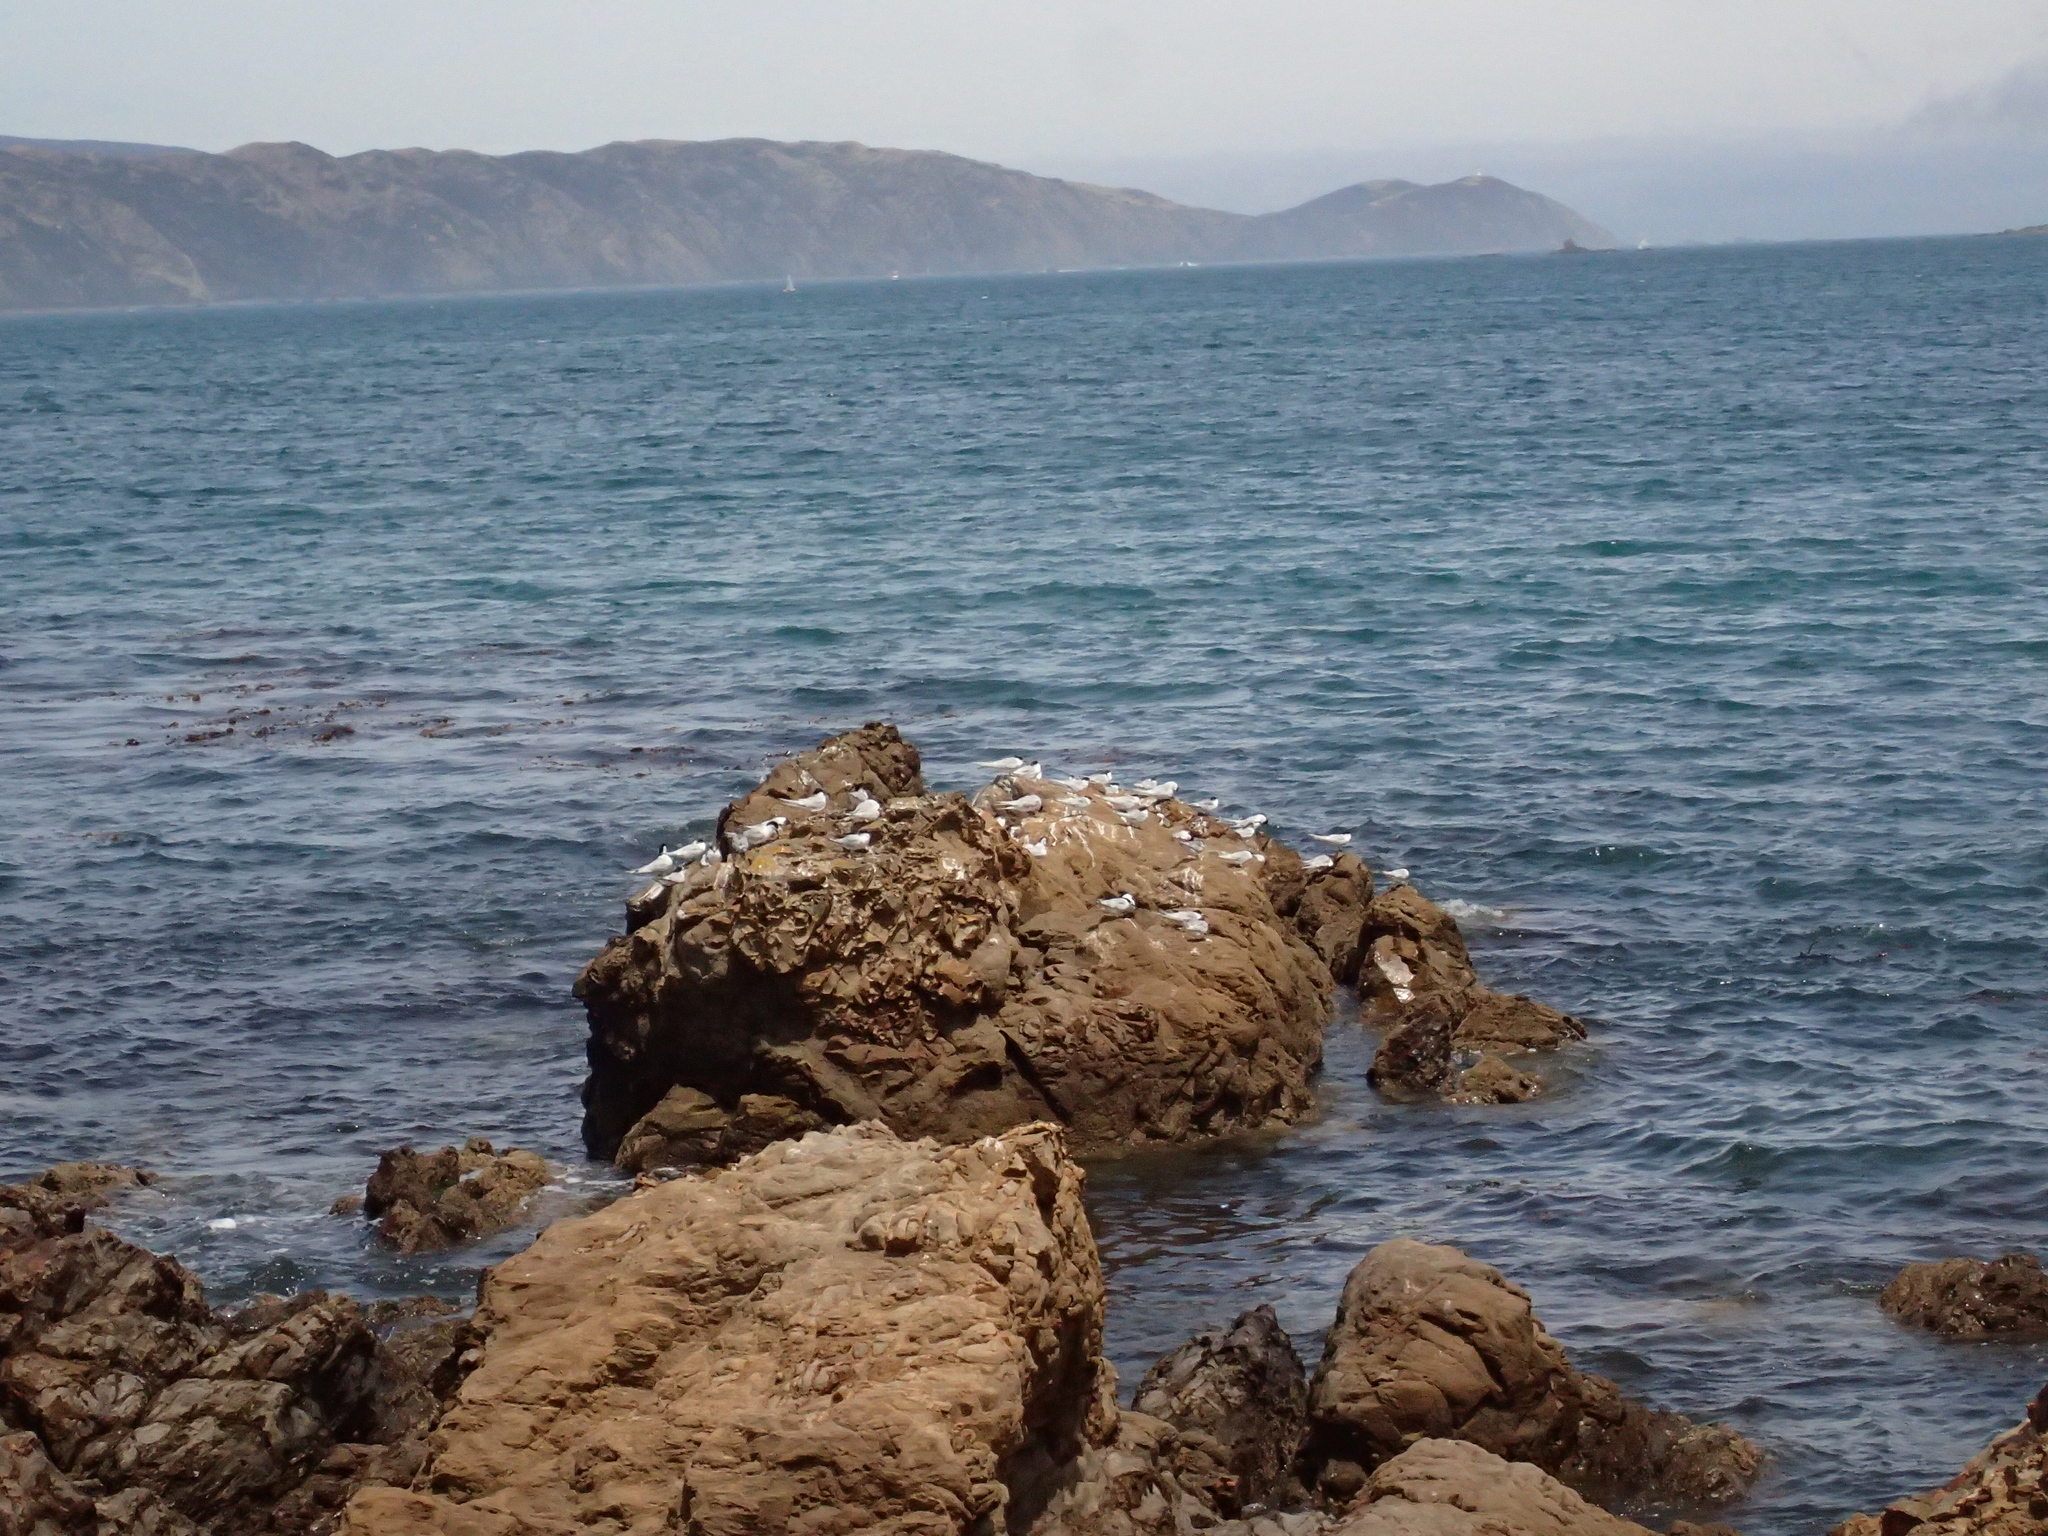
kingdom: Animalia
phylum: Chordata
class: Aves
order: Charadriiformes
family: Laridae
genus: Sterna
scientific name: Sterna striata
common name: White-fronted tern
